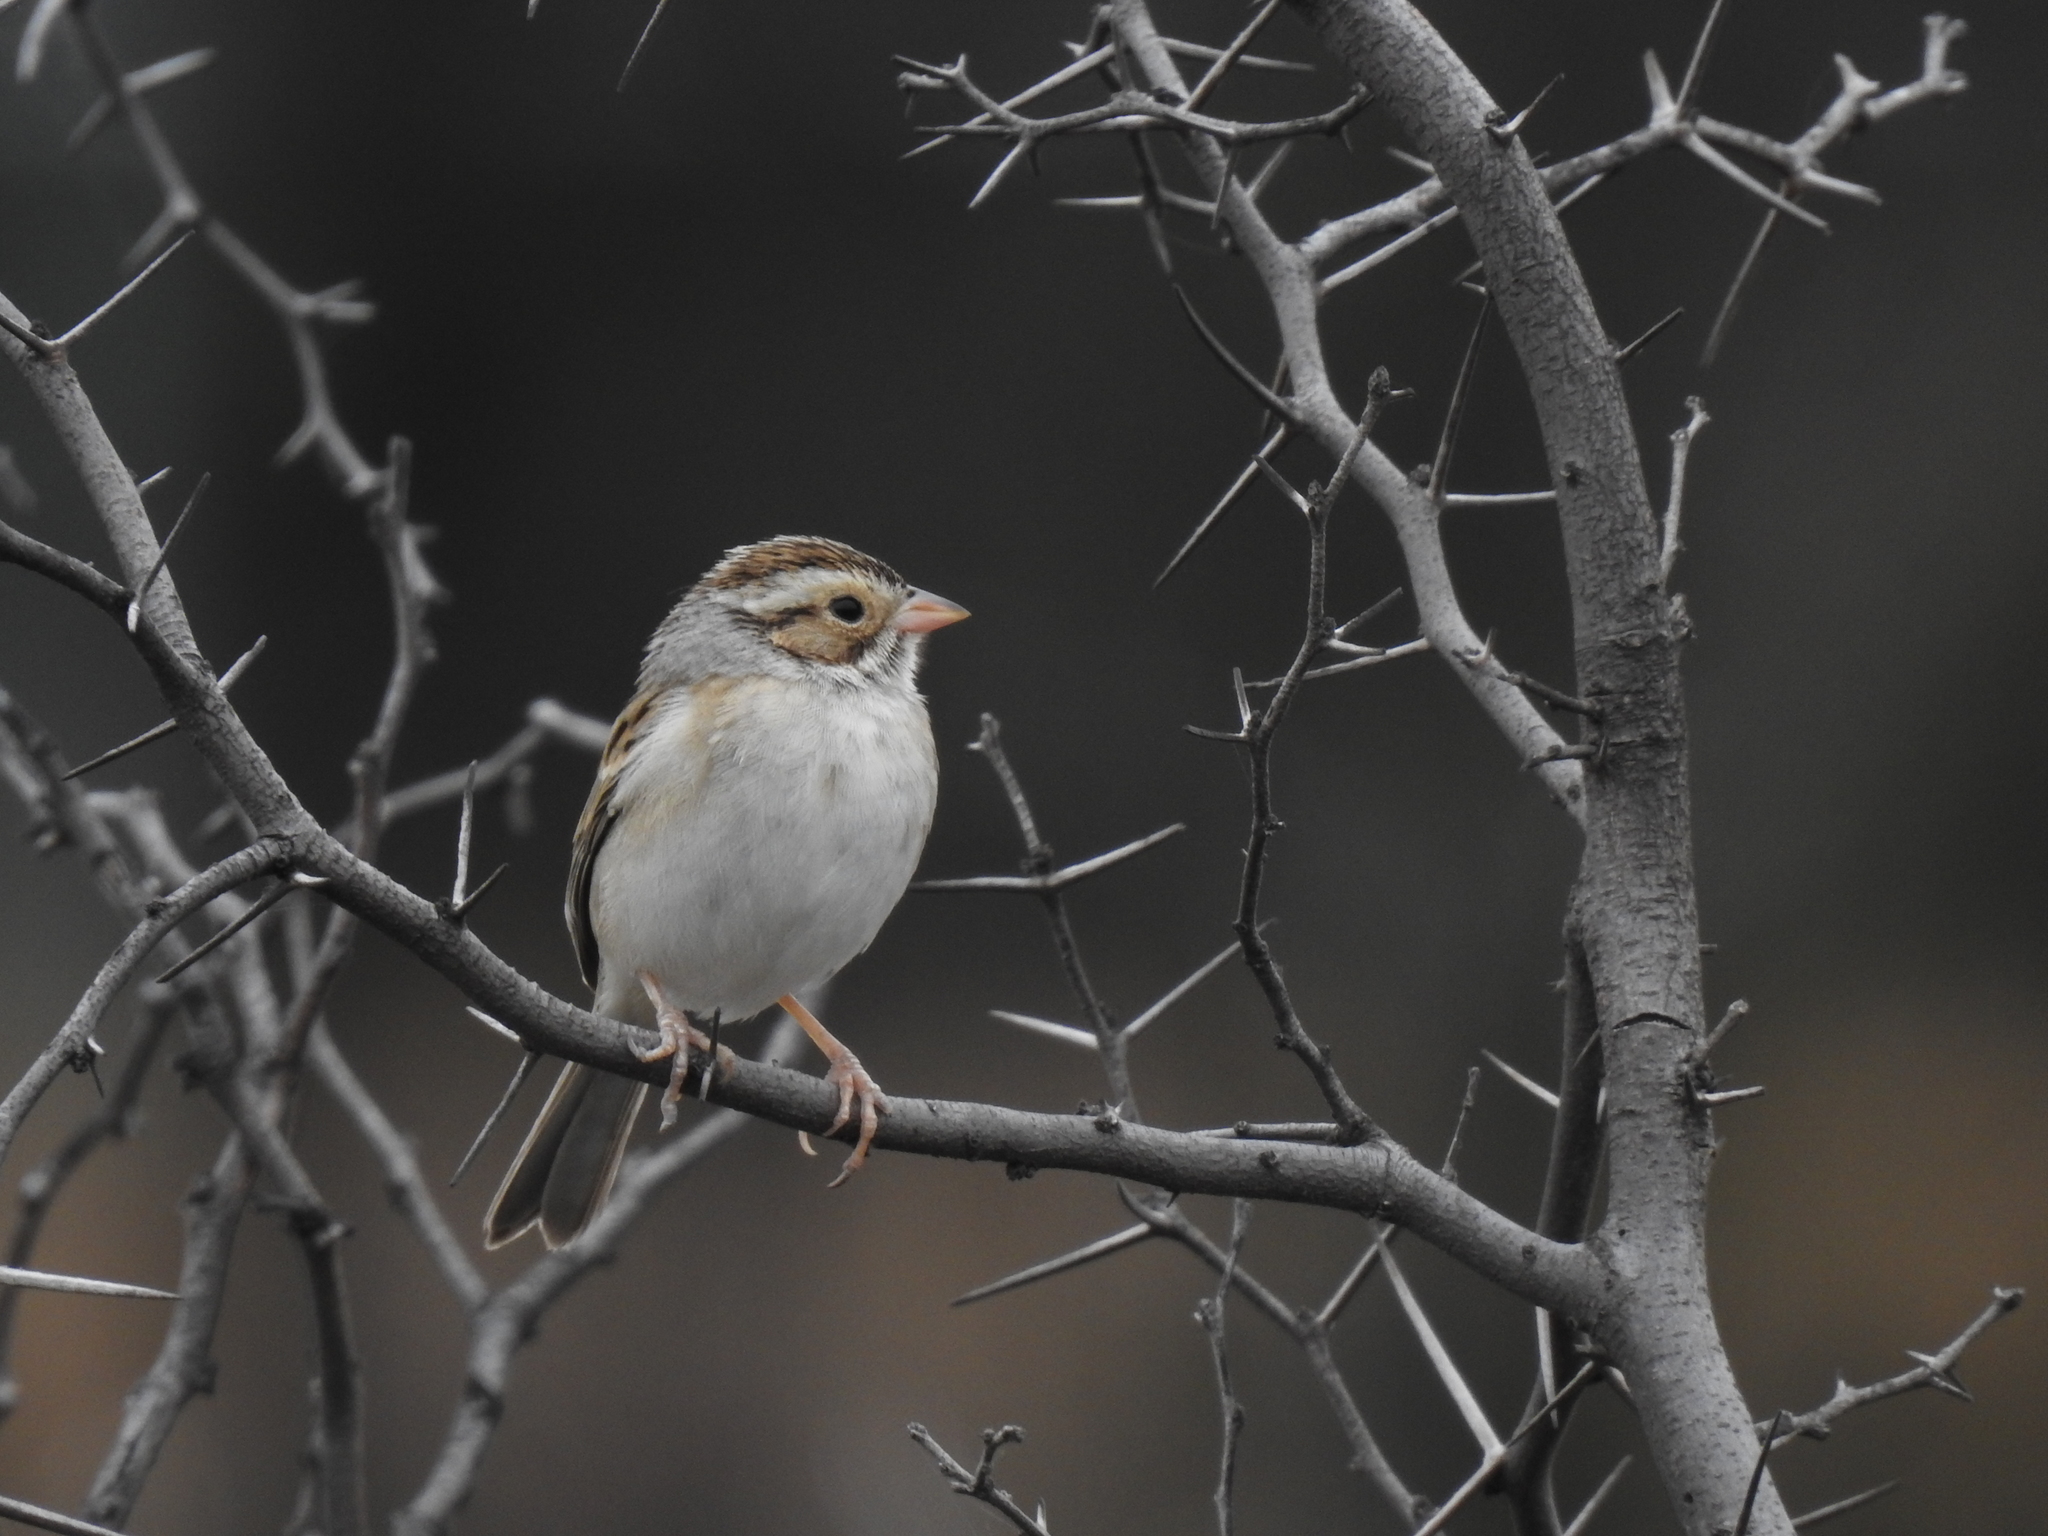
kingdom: Animalia
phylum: Chordata
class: Aves
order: Passeriformes
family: Passerellidae
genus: Spizella
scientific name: Spizella pallida
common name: Clay-colored sparrow
